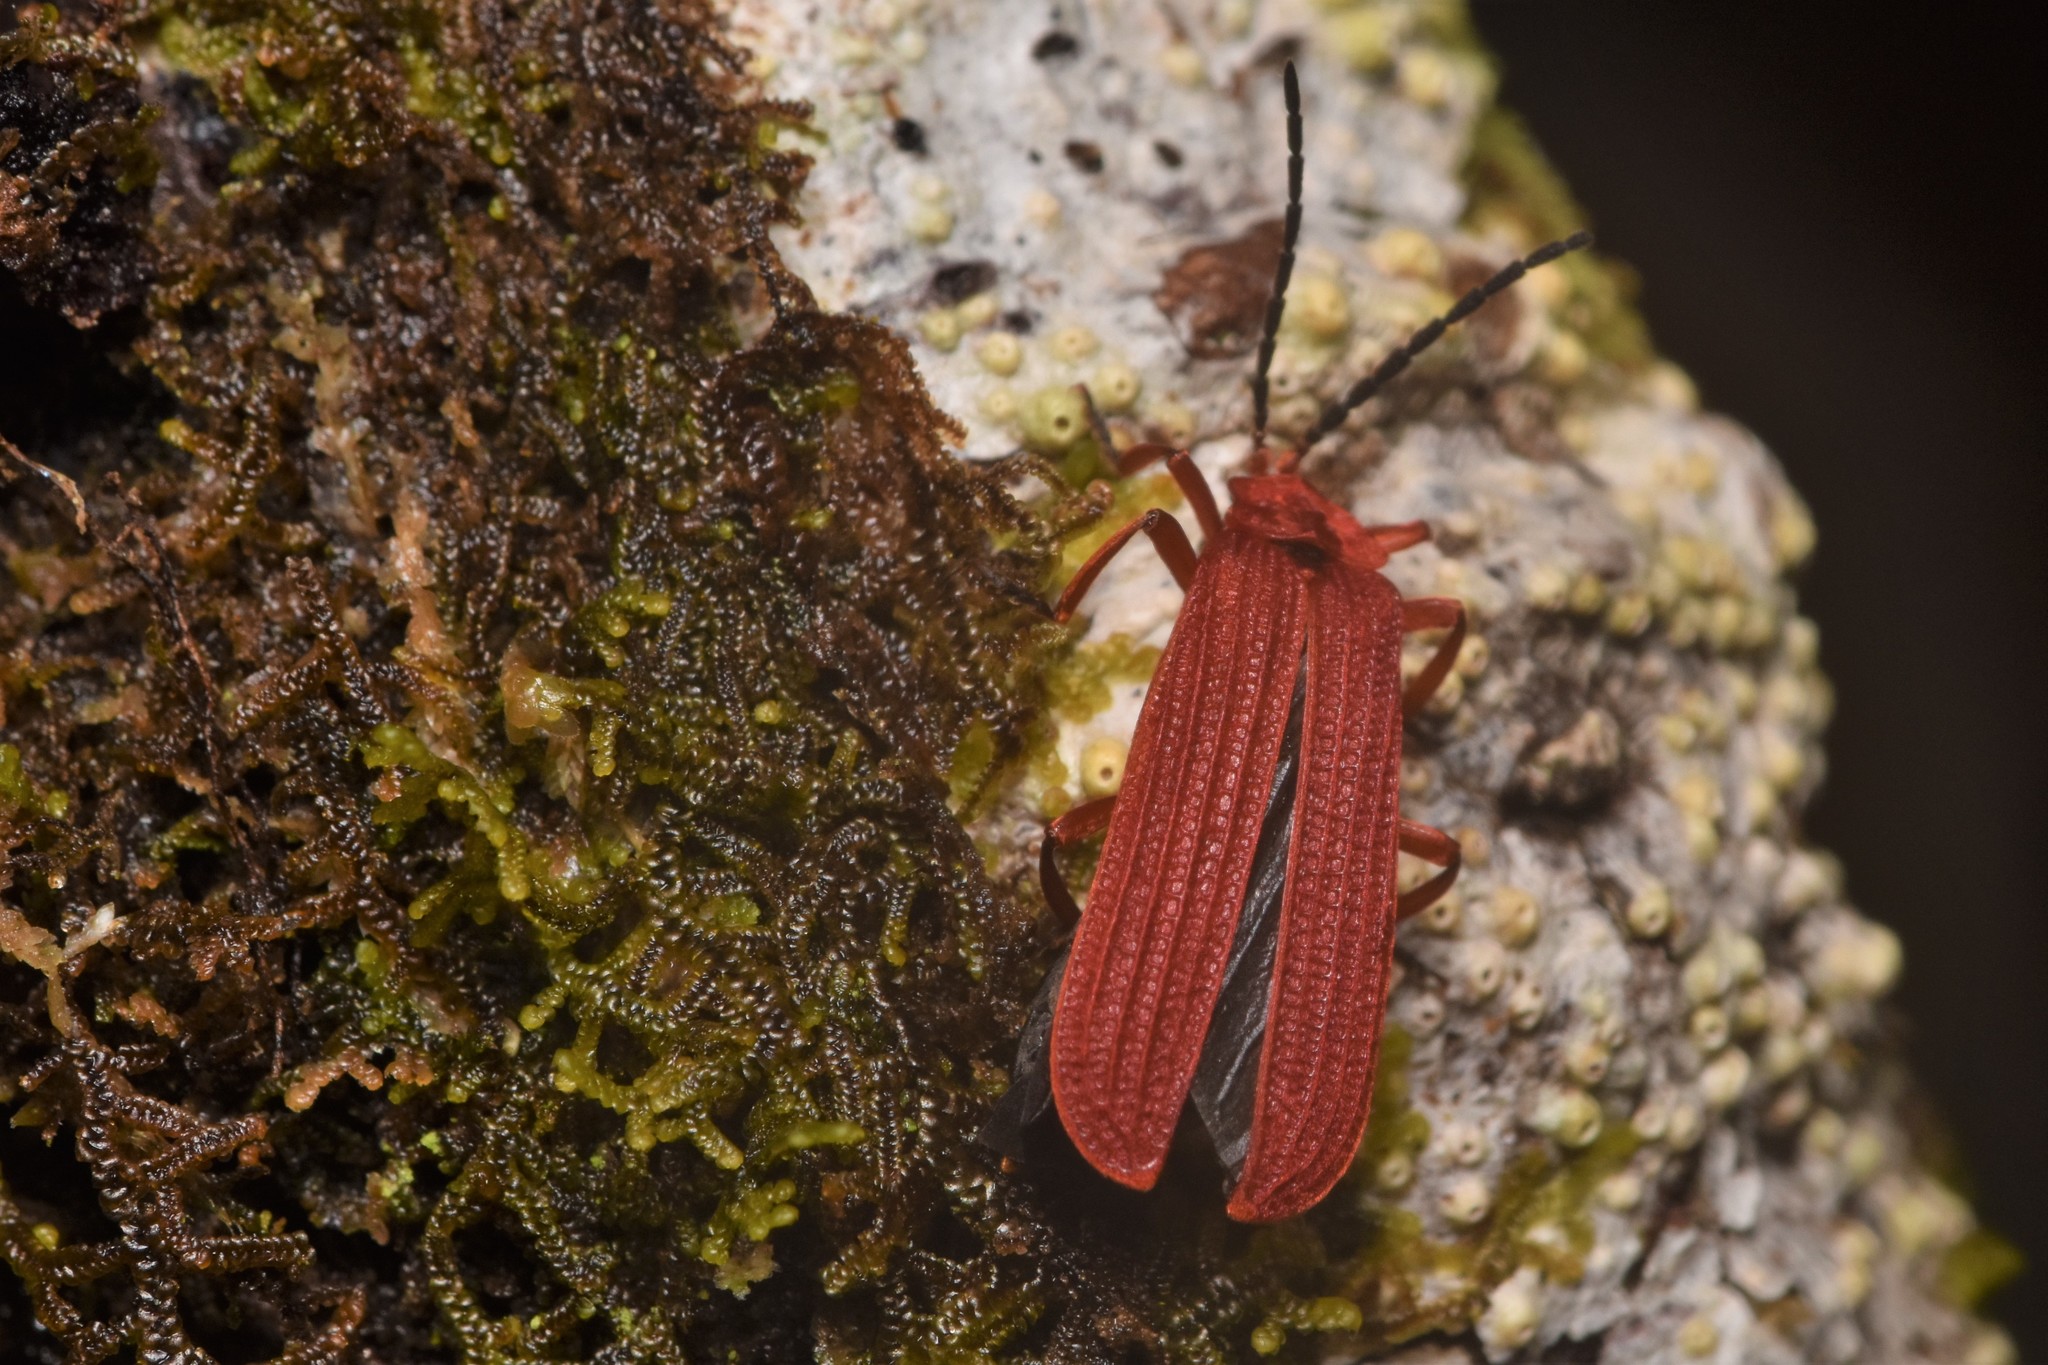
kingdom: Animalia
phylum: Arthropoda
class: Insecta
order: Coleoptera
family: Lycidae
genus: Punicealis
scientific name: Punicealis hamata
